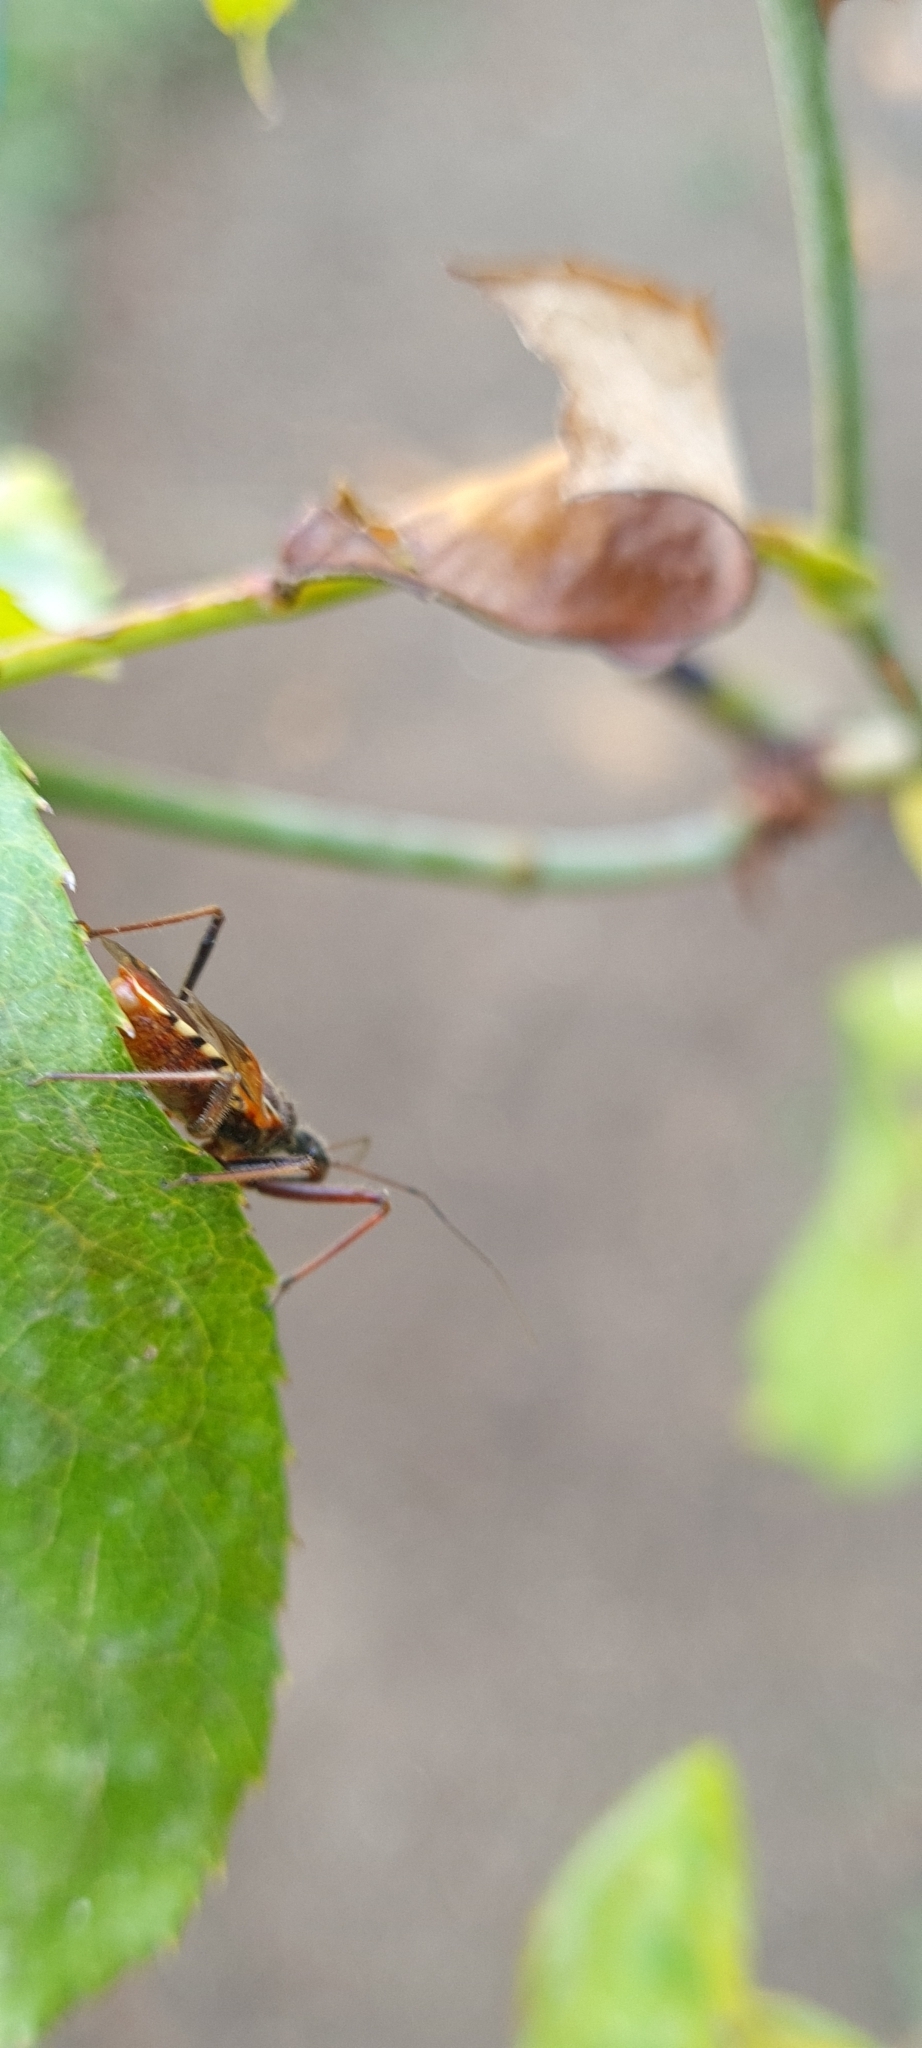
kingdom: Animalia
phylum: Arthropoda
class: Insecta
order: Hemiptera
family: Reduviidae
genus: Rhynocoris
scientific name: Rhynocoris erythropus
